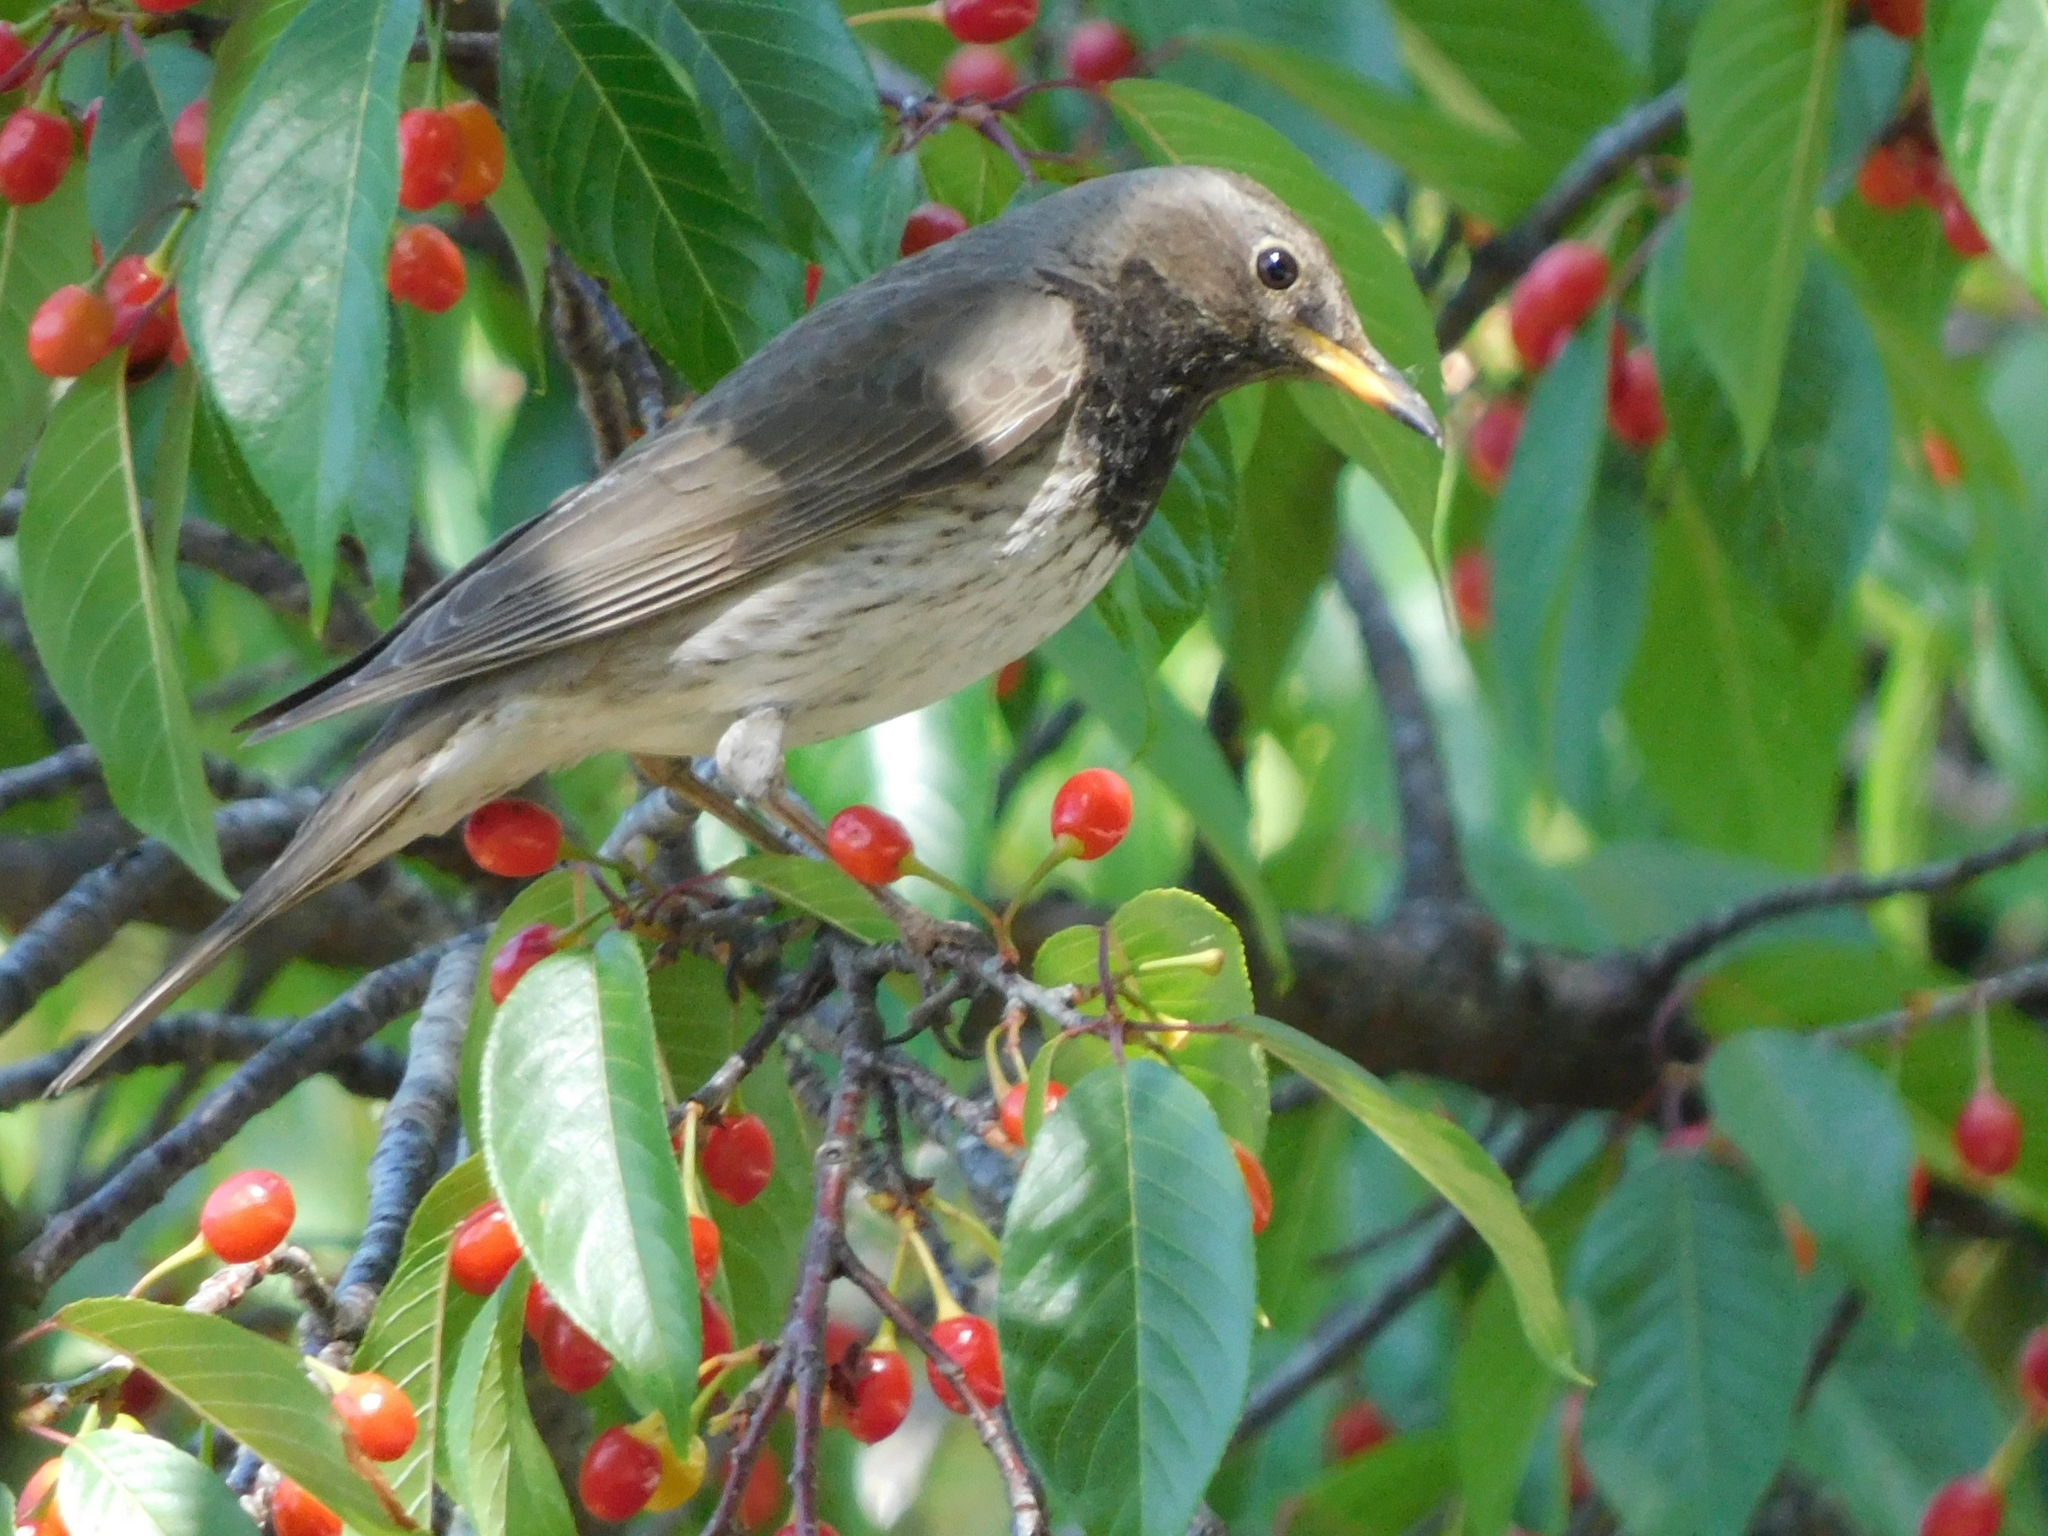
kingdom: Animalia
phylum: Chordata
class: Aves
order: Passeriformes
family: Turdidae
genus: Turdus
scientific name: Turdus atrogularis
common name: Black-throated thrush
